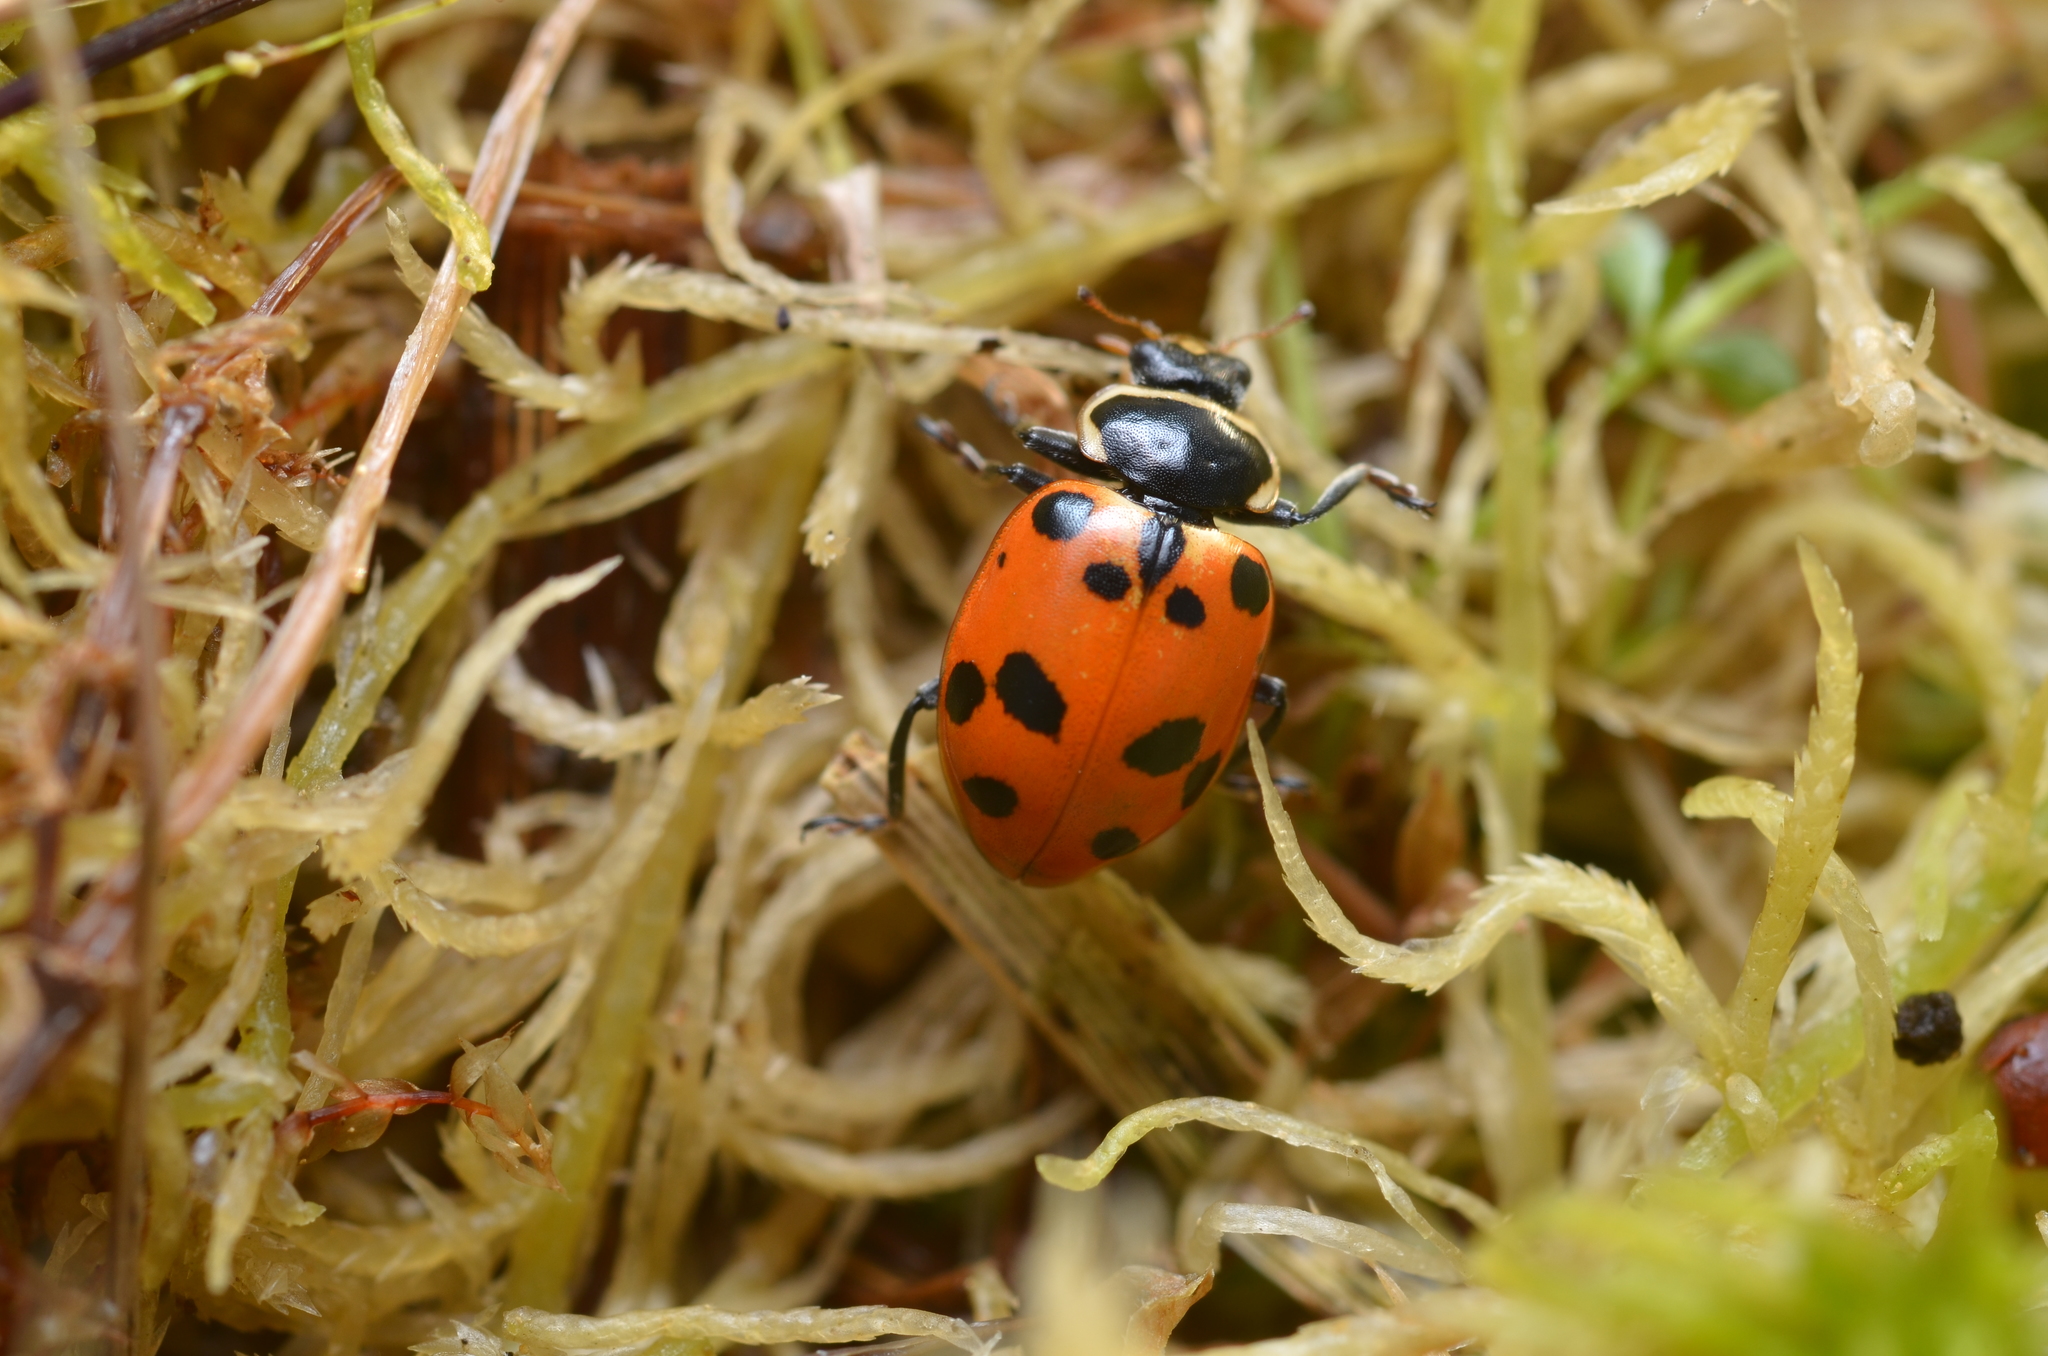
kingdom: Animalia
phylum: Arthropoda
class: Insecta
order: Coleoptera
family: Coccinellidae
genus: Hippodamia
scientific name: Hippodamia septemmaculata
